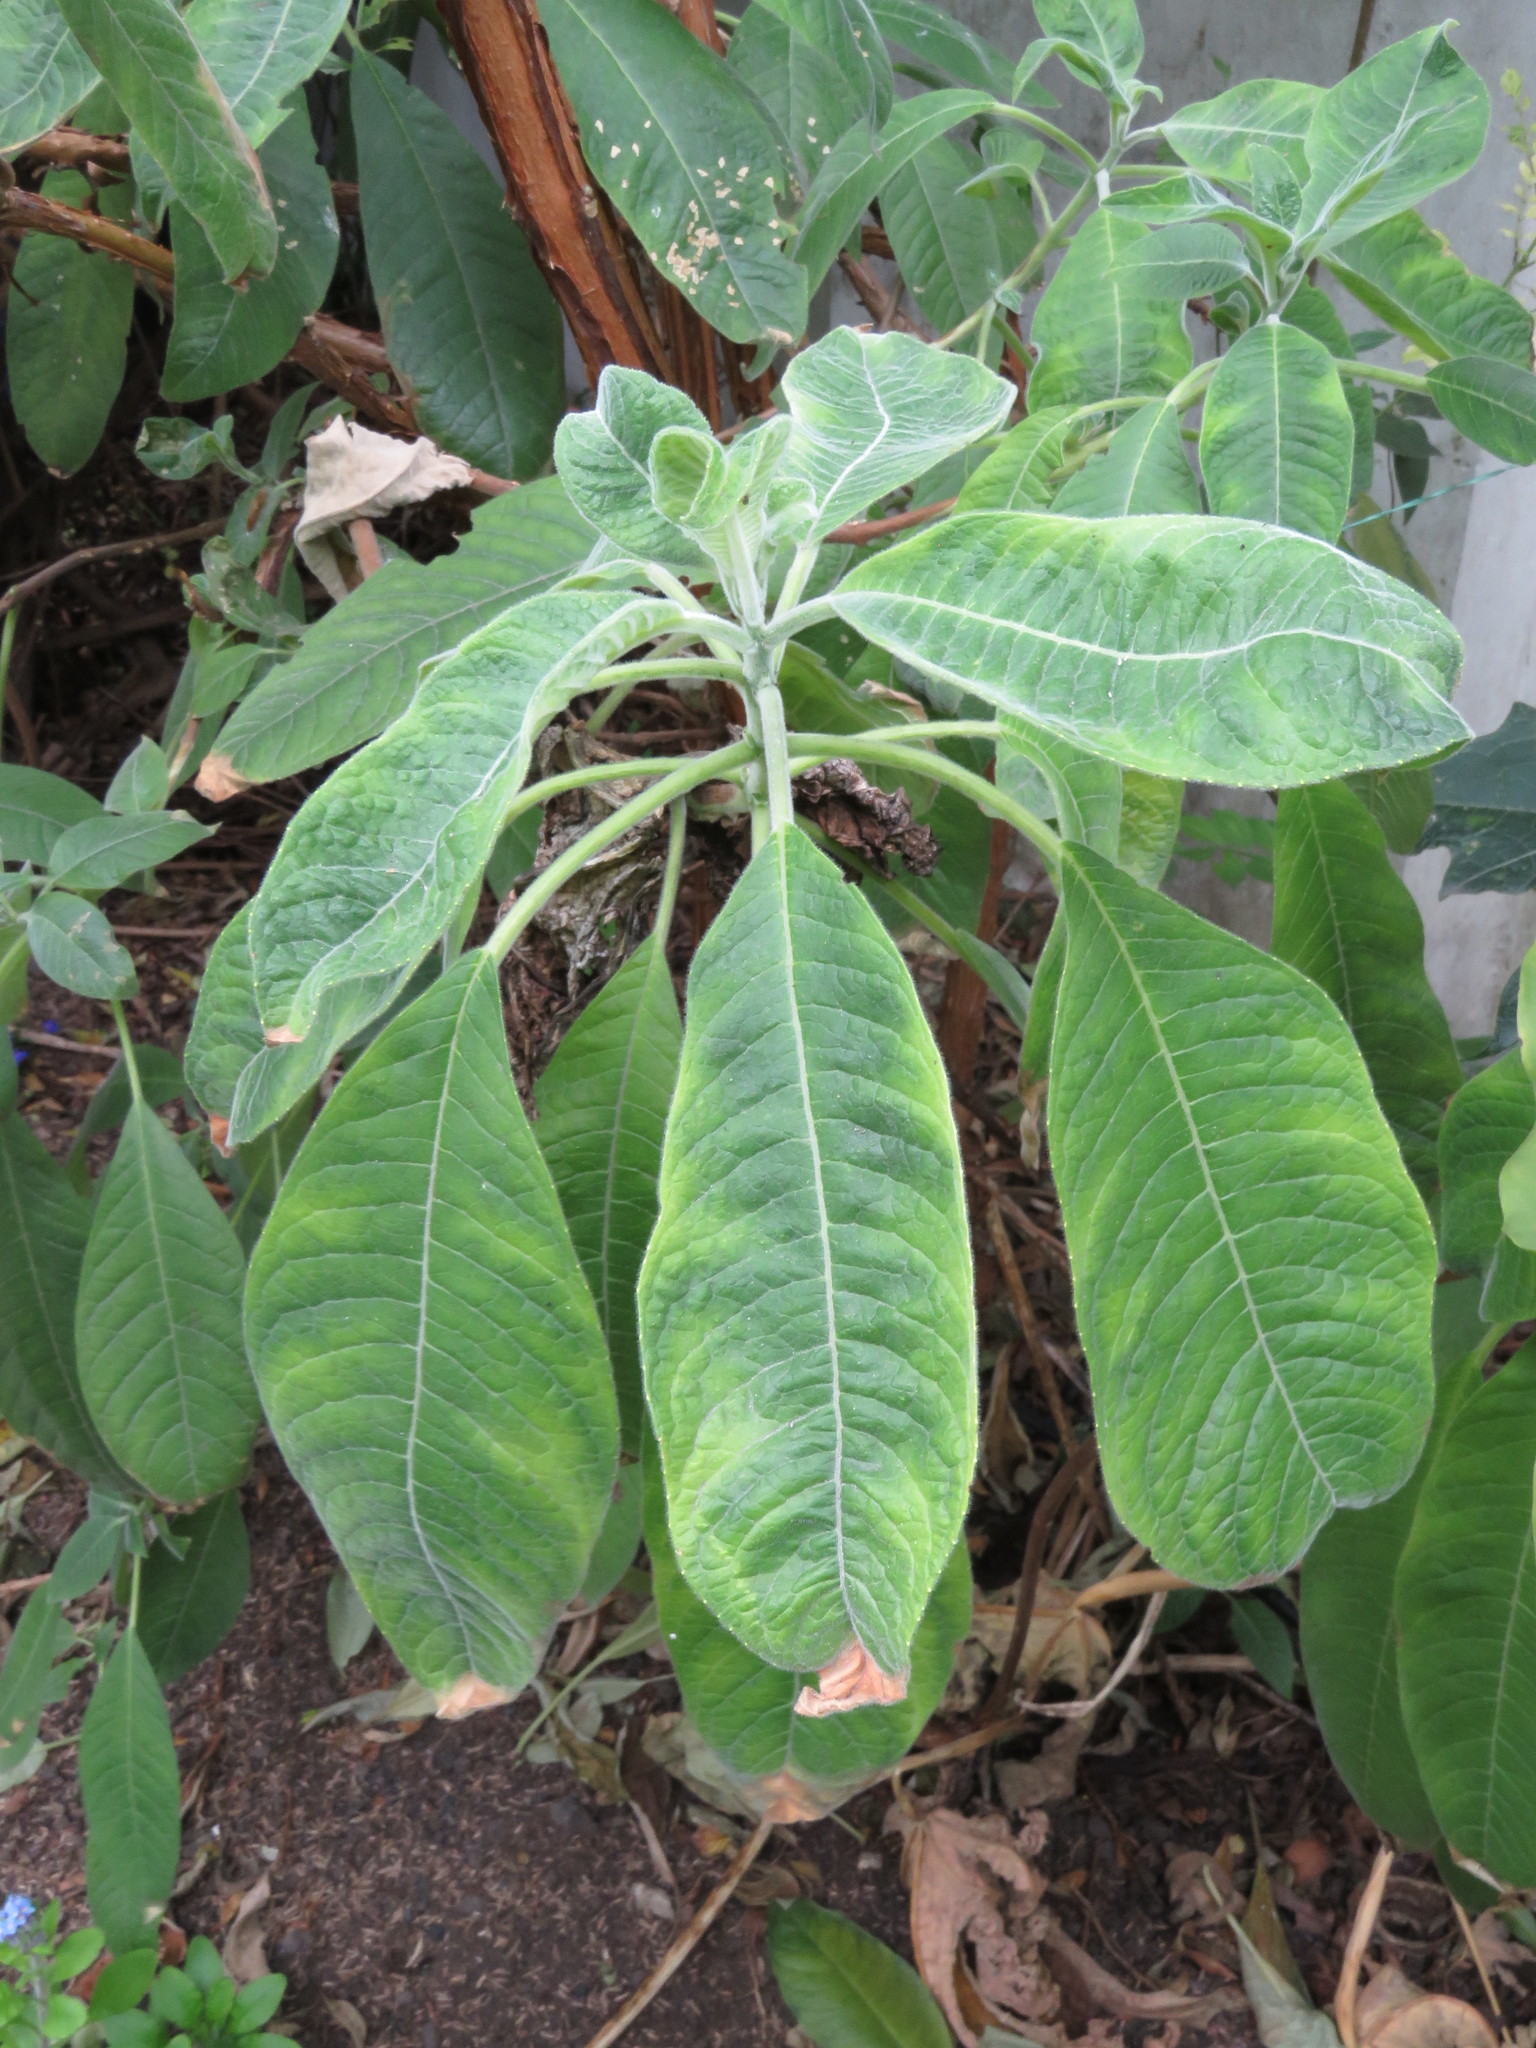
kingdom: Plantae
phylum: Tracheophyta
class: Magnoliopsida
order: Myrtales
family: Onagraceae
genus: Fuchsia
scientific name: Fuchsia boliviana
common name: Bolivian fuchsia
